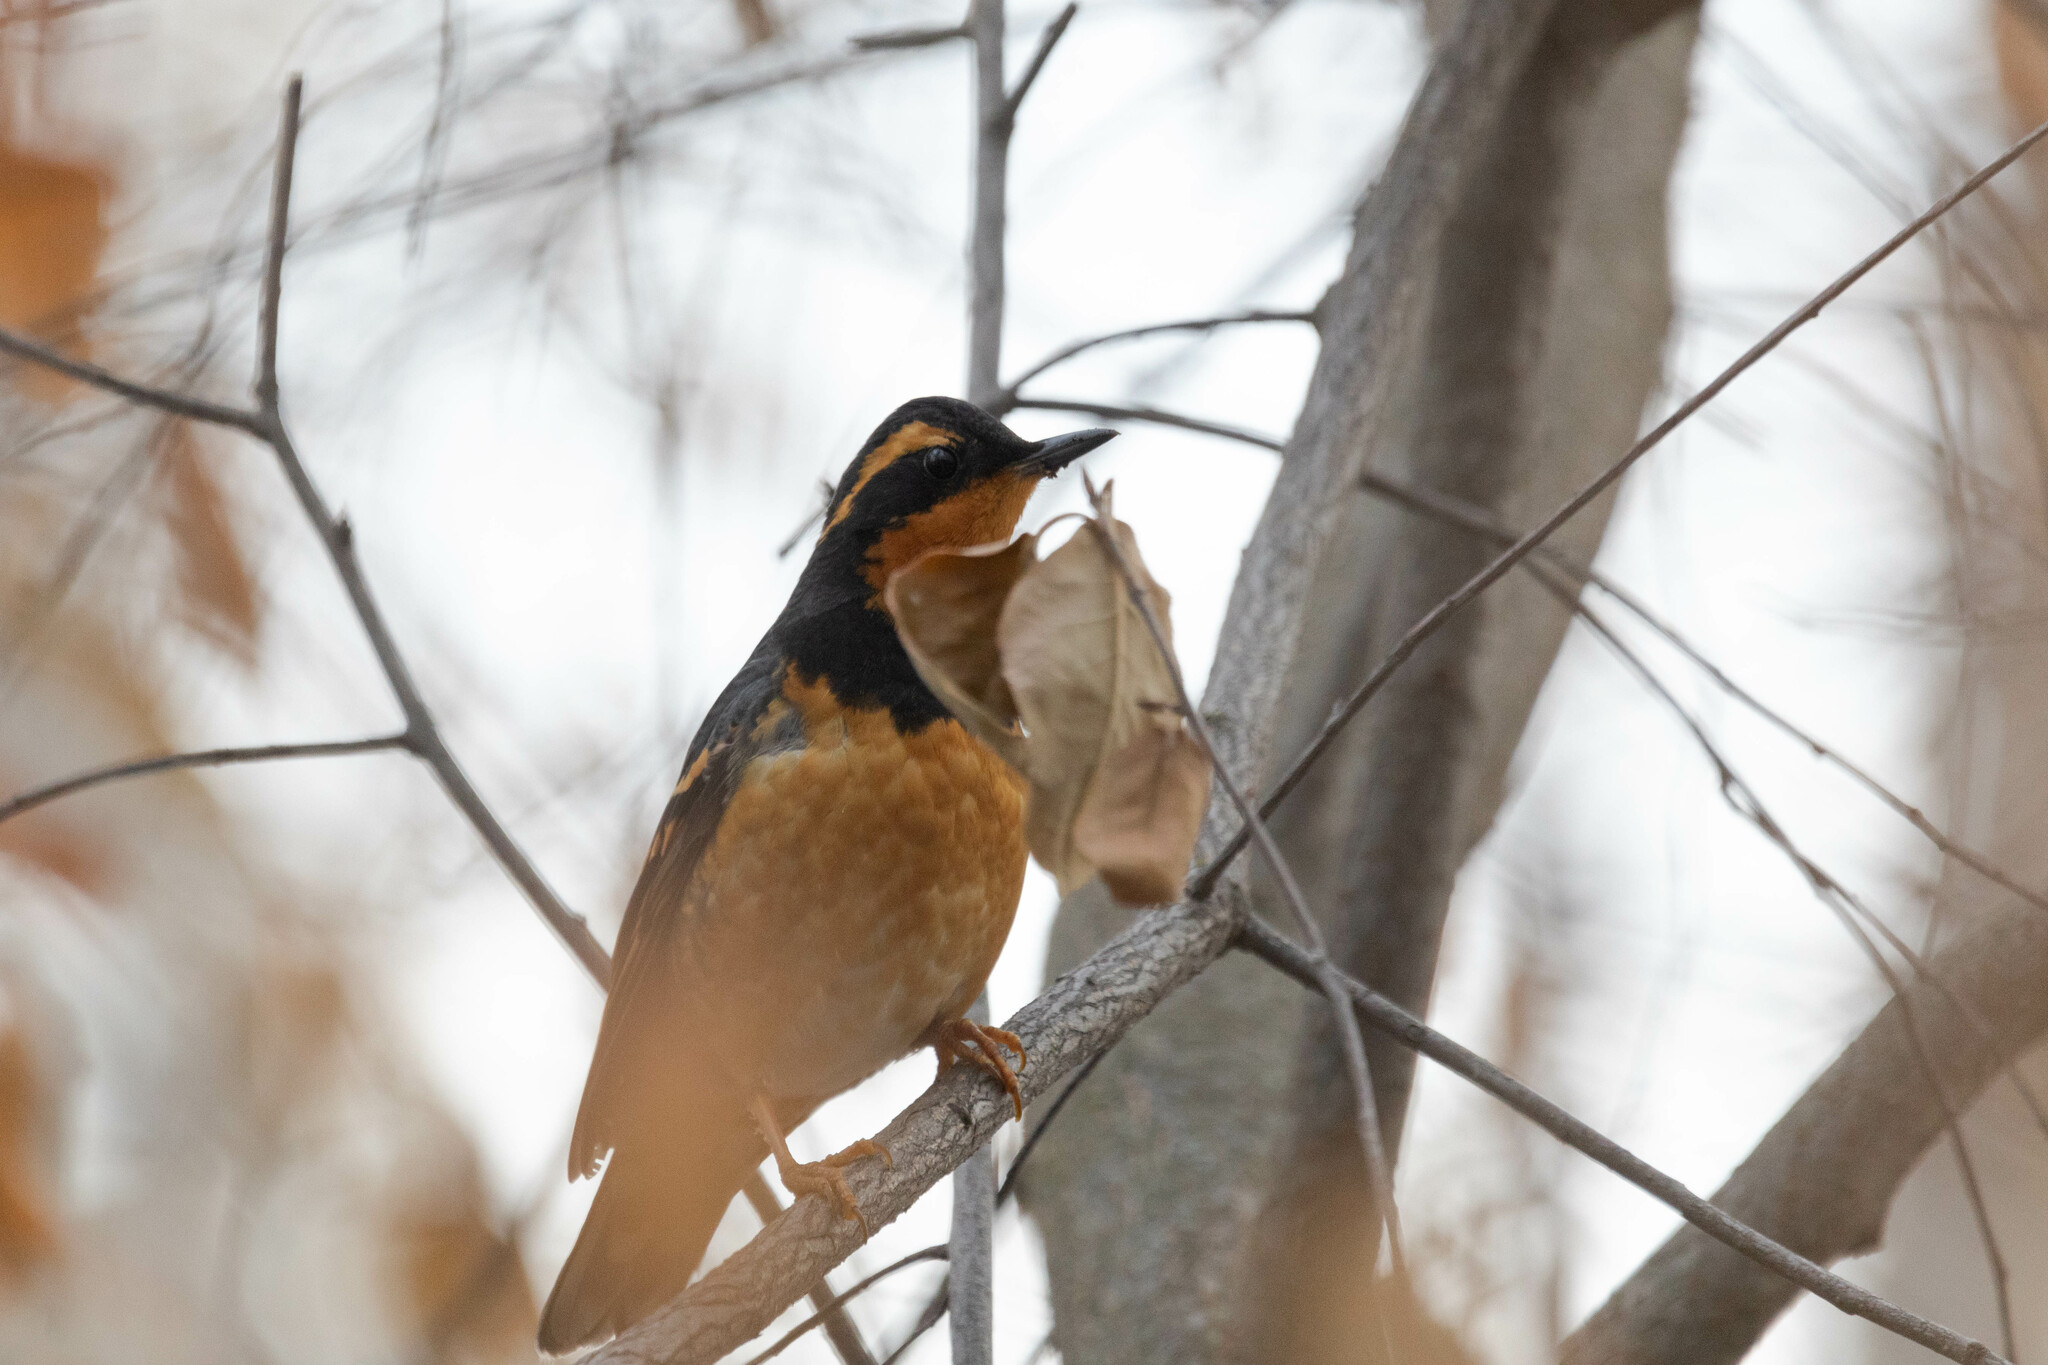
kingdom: Animalia
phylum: Chordata
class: Aves
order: Passeriformes
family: Turdidae
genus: Ixoreus
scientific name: Ixoreus naevius
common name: Varied thrush
